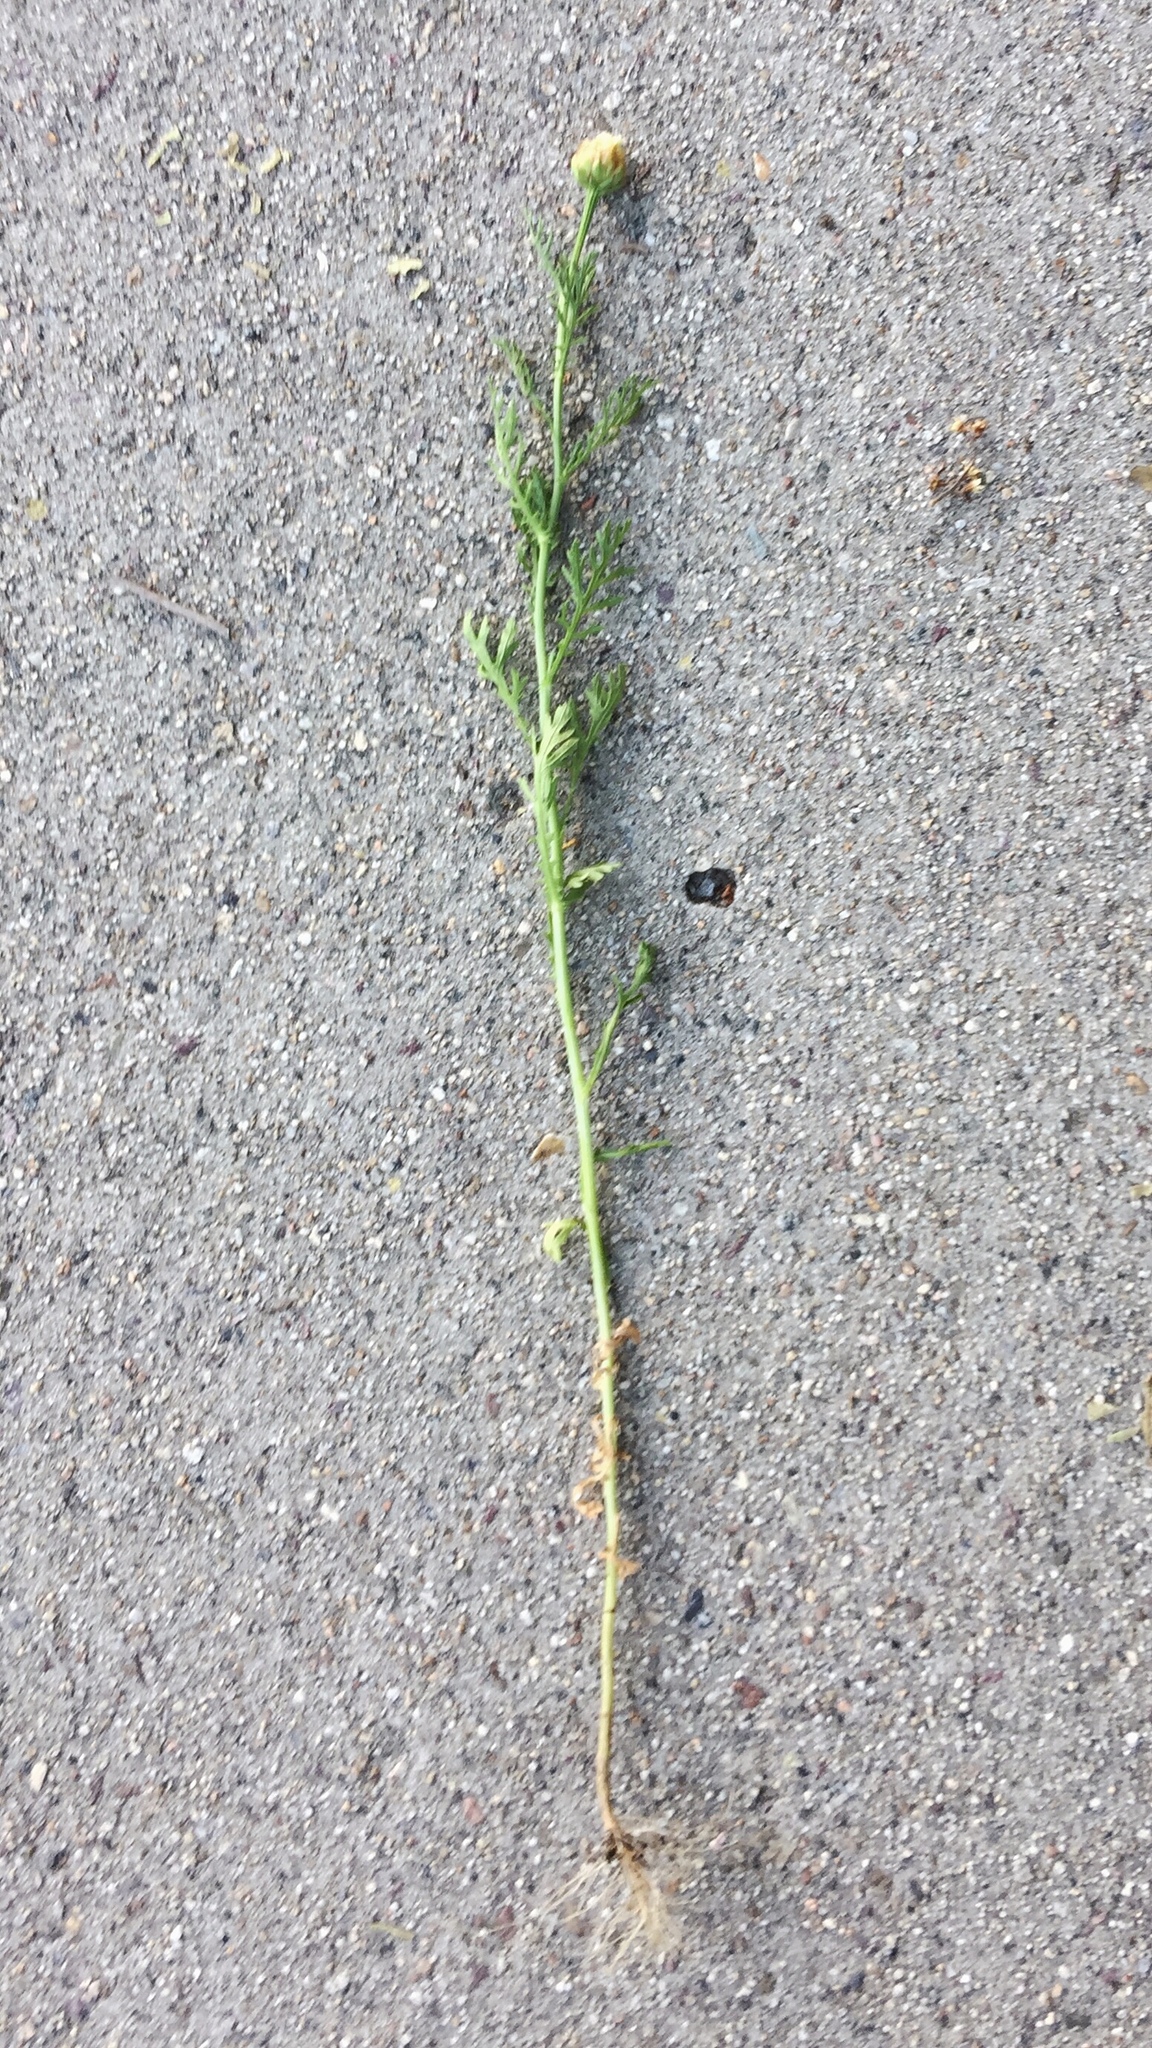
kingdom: Plantae
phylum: Tracheophyta
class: Magnoliopsida
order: Asterales
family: Asteraceae
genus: Glebionis
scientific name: Glebionis coronaria
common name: Crowndaisy
